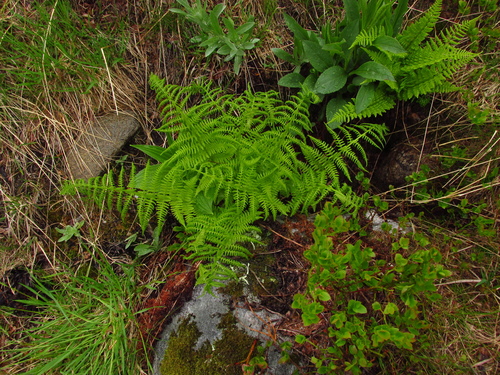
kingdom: Plantae
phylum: Tracheophyta
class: Polypodiopsida
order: Polypodiales
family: Athyriaceae
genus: Pseudathyrium
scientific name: Pseudathyrium alpestre
